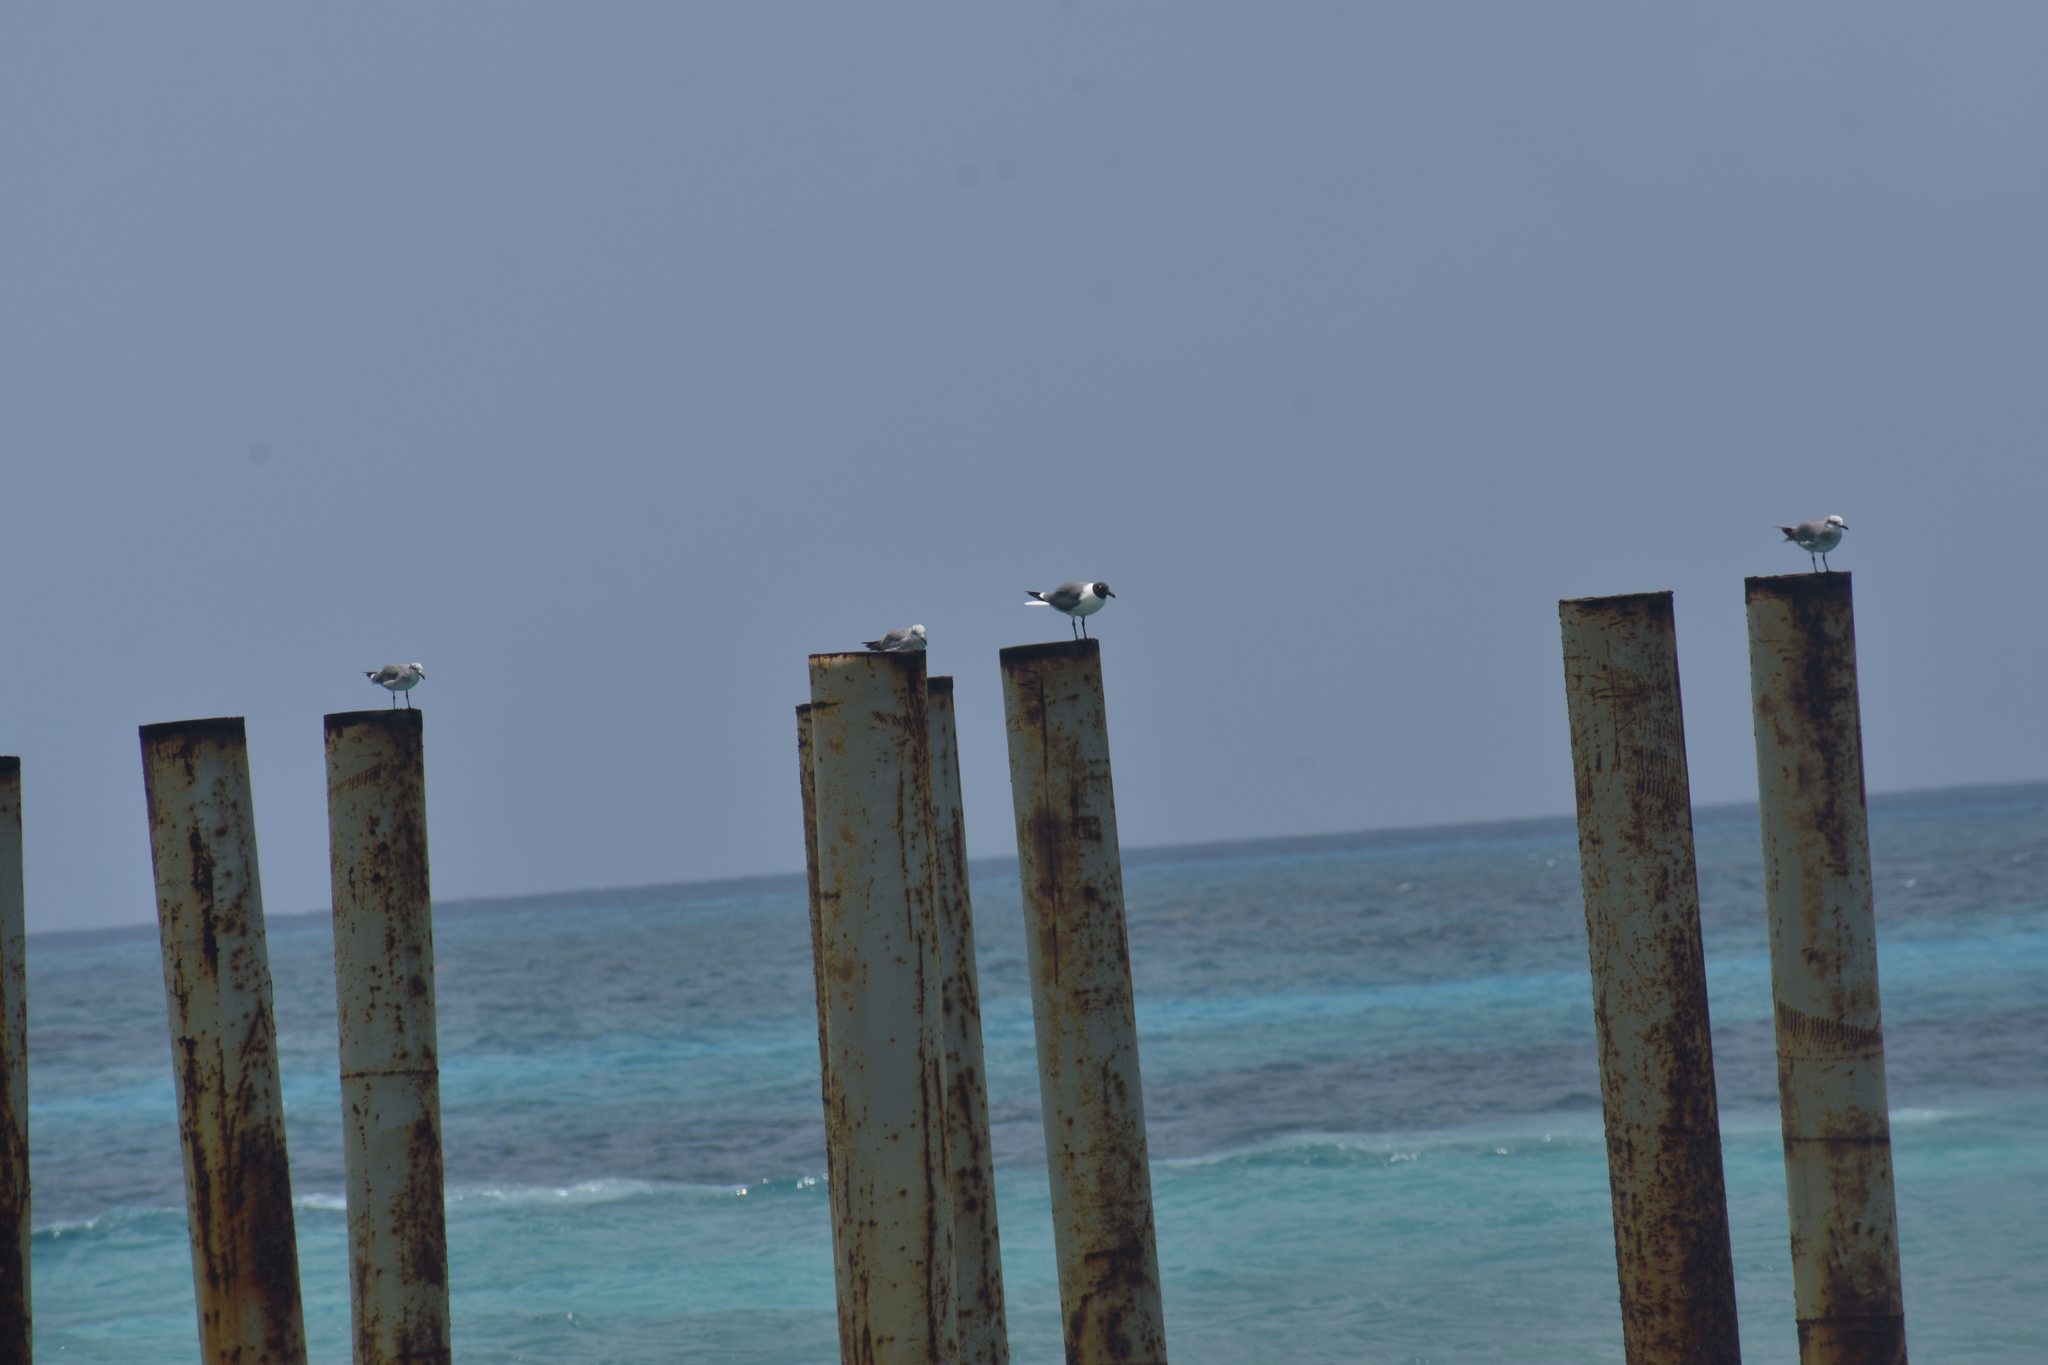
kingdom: Animalia
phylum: Chordata
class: Aves
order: Charadriiformes
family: Laridae
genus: Leucophaeus
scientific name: Leucophaeus atricilla
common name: Laughing gull
